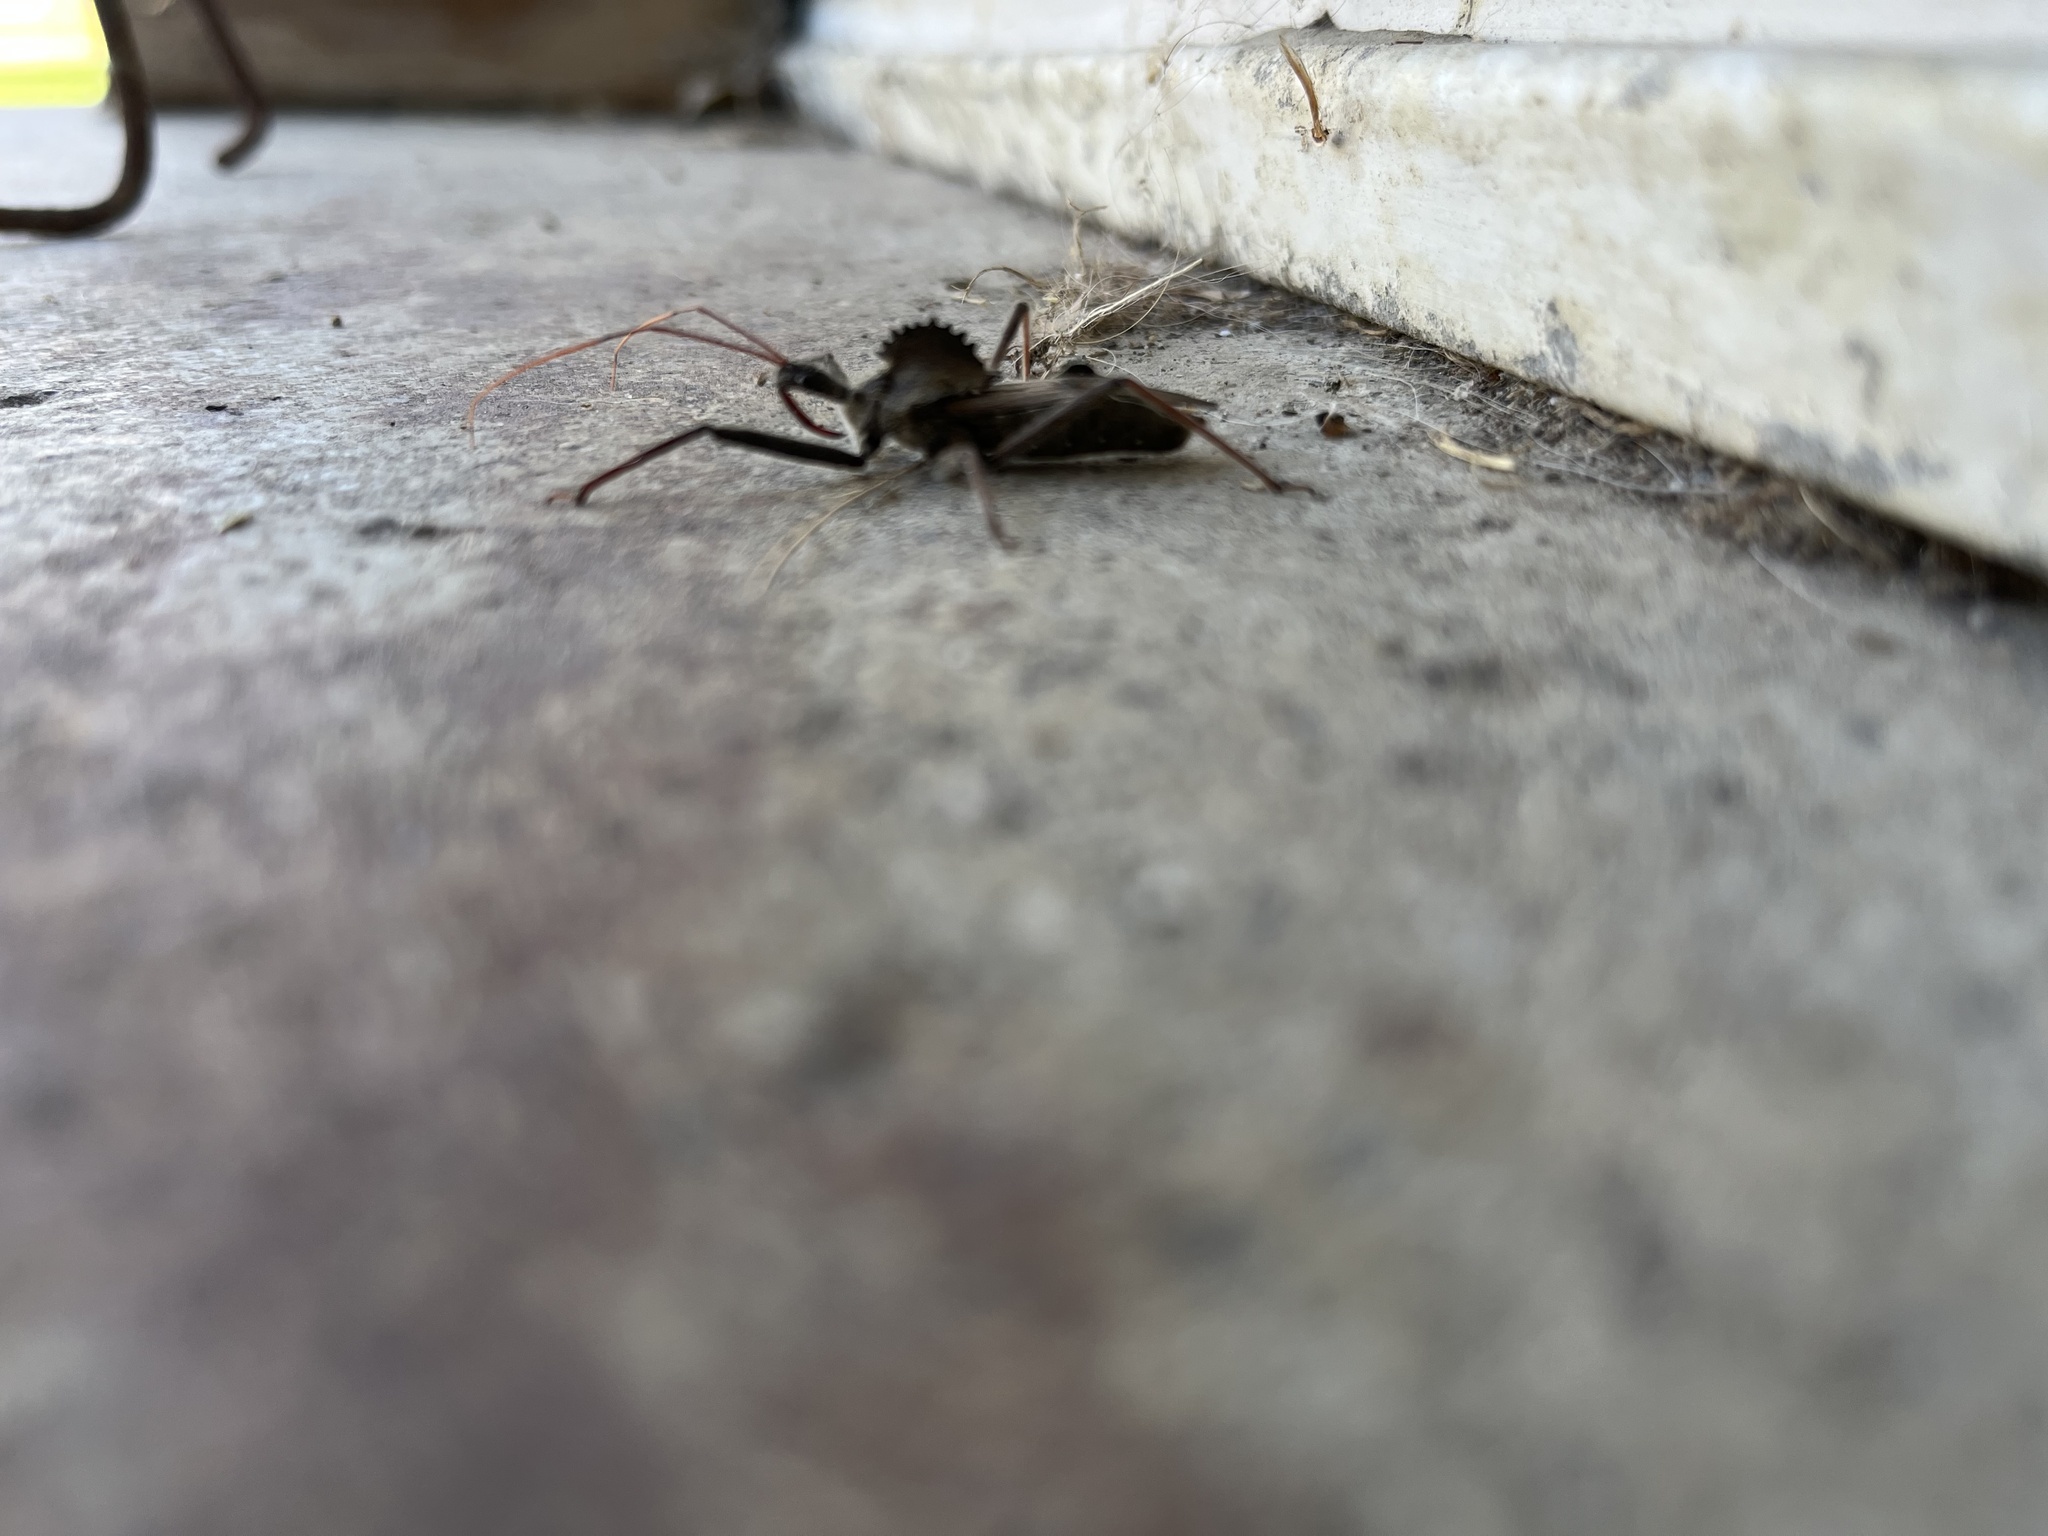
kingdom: Animalia
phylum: Arthropoda
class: Insecta
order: Hemiptera
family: Reduviidae
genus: Arilus
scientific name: Arilus cristatus
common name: North american wheel bug
